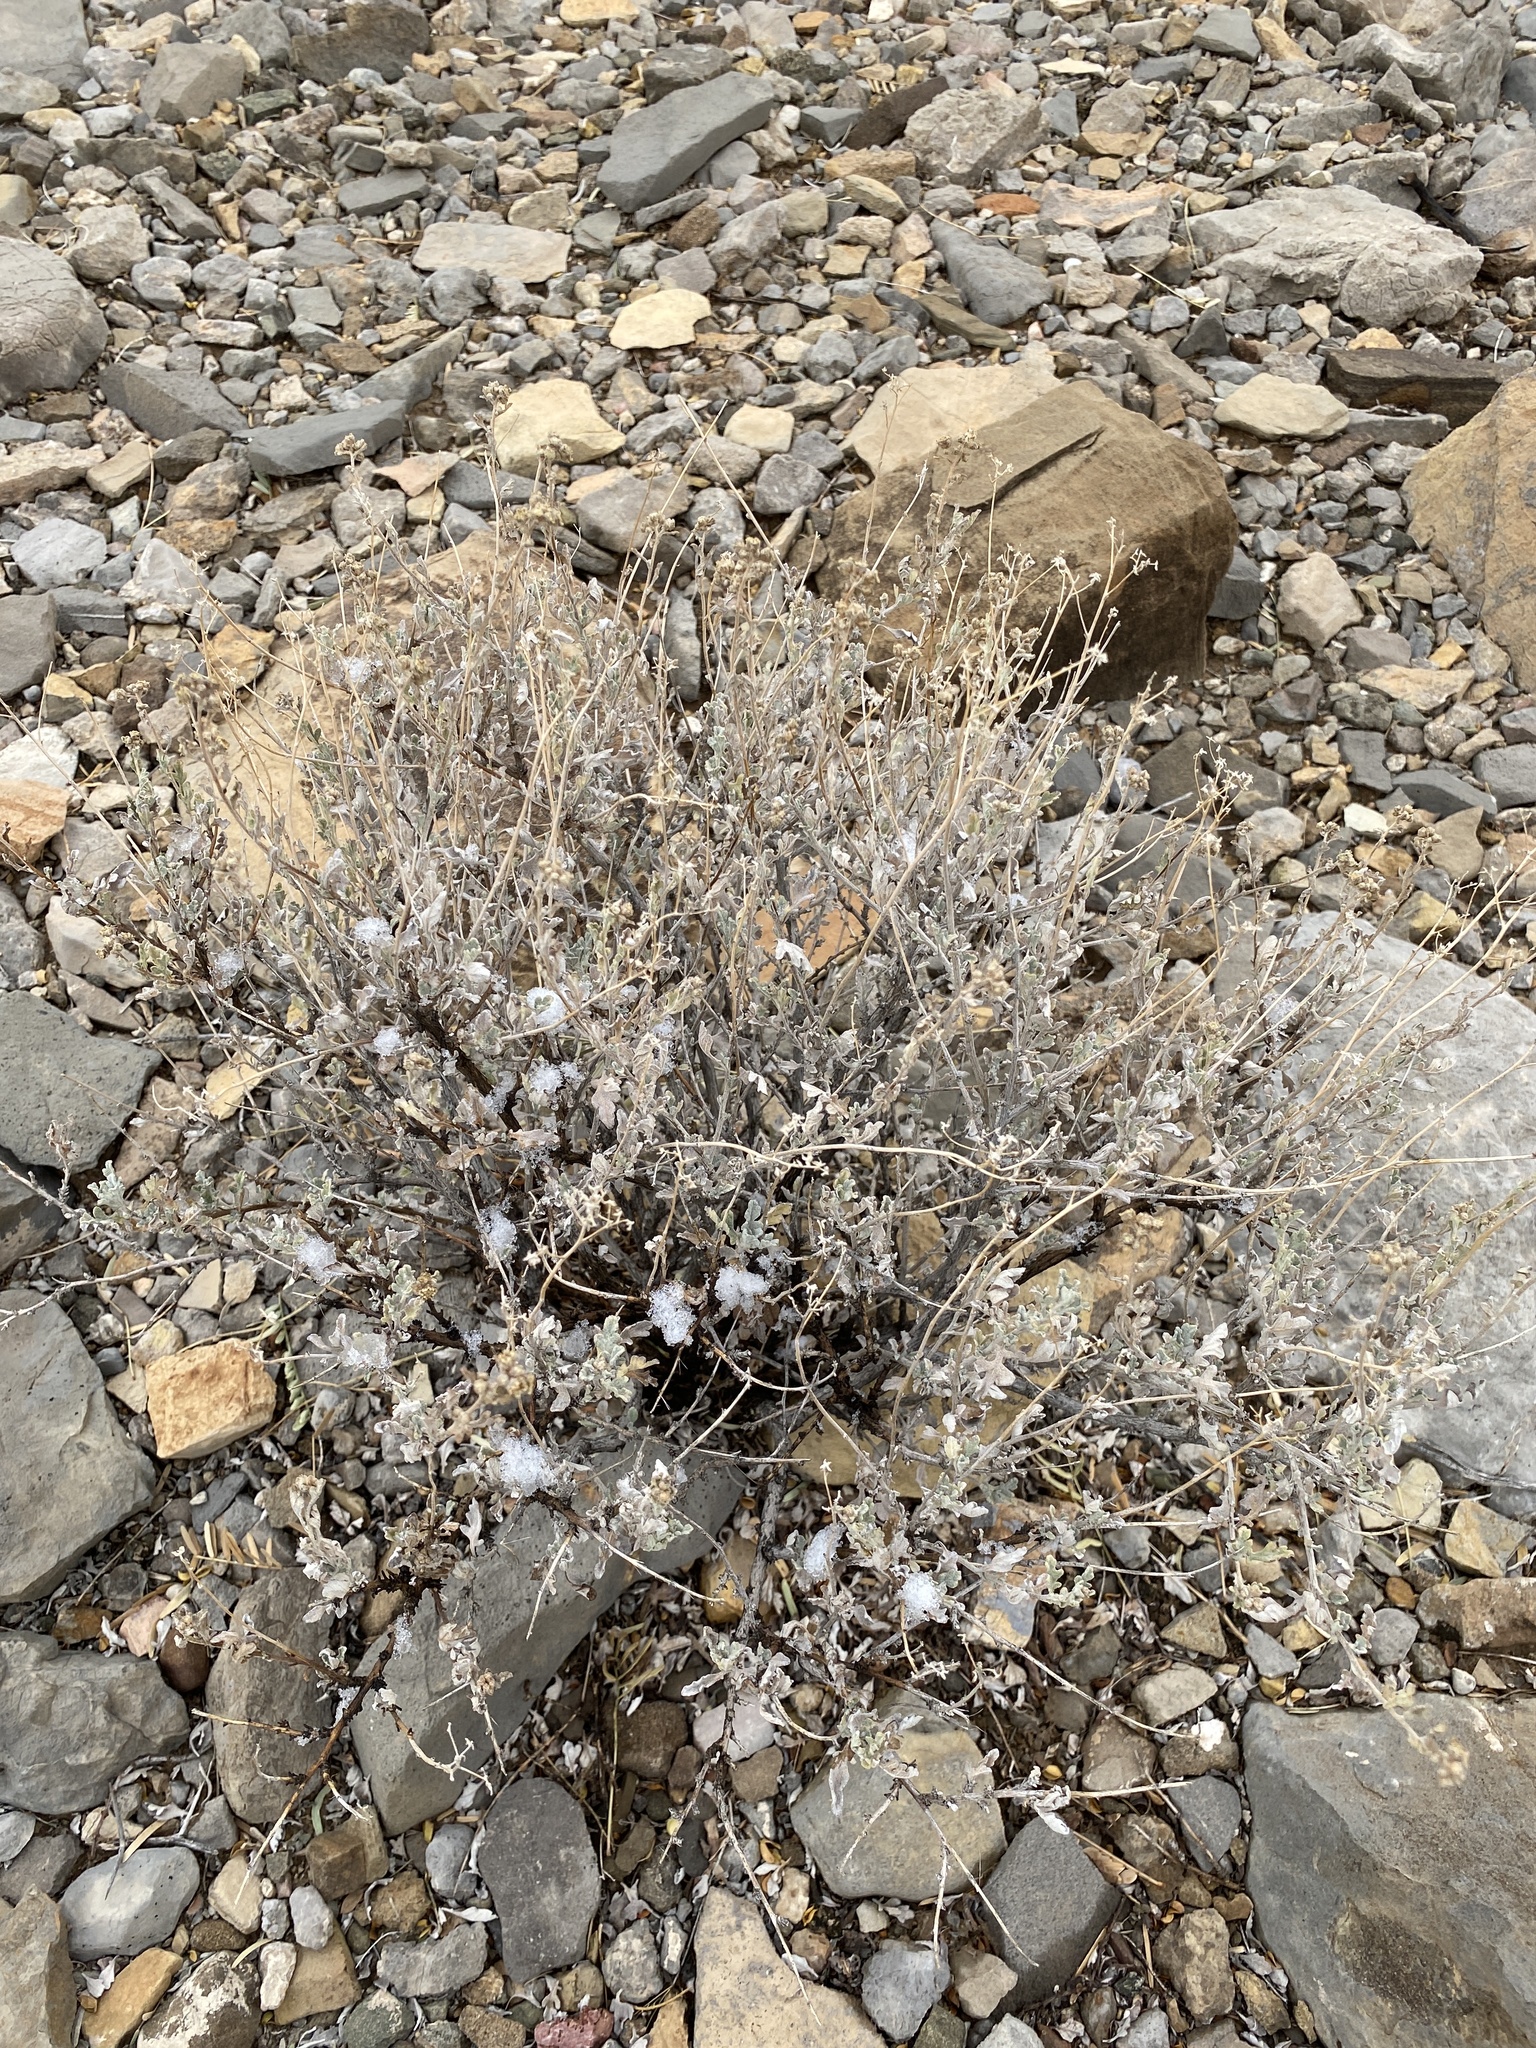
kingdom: Plantae
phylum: Tracheophyta
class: Magnoliopsida
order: Asterales
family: Asteraceae
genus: Parthenium
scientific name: Parthenium incanum
